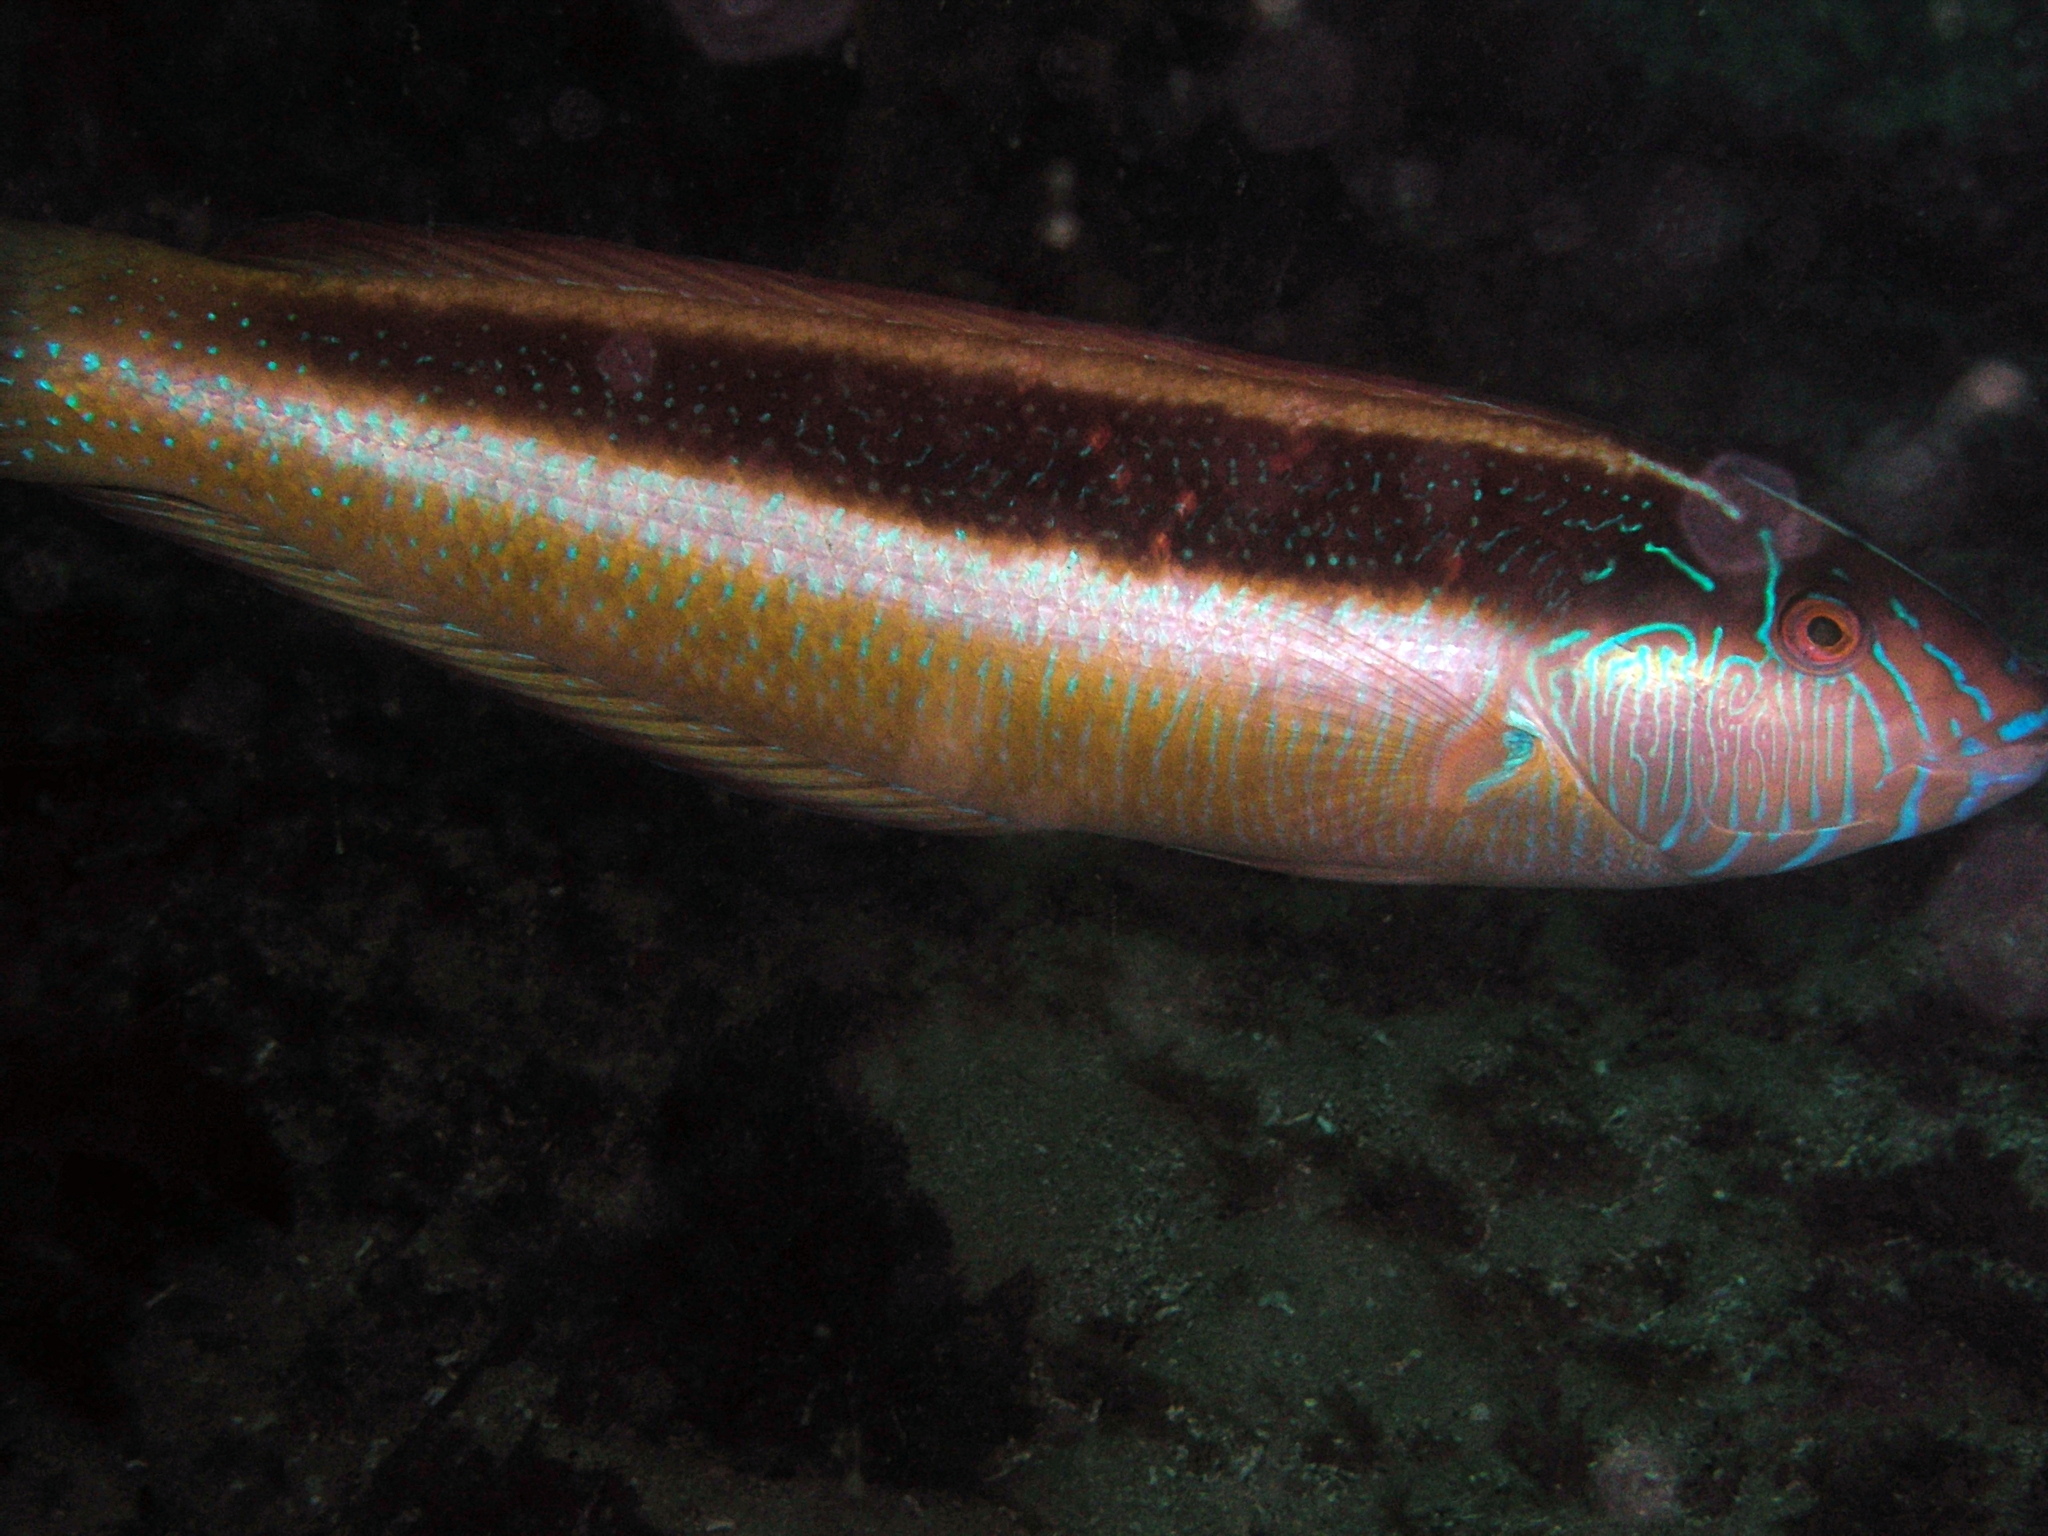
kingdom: Animalia
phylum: Chordata
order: Perciformes
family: Labridae
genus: Ophthalmolepis
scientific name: Ophthalmolepis lineolata
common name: Maori wrasse
